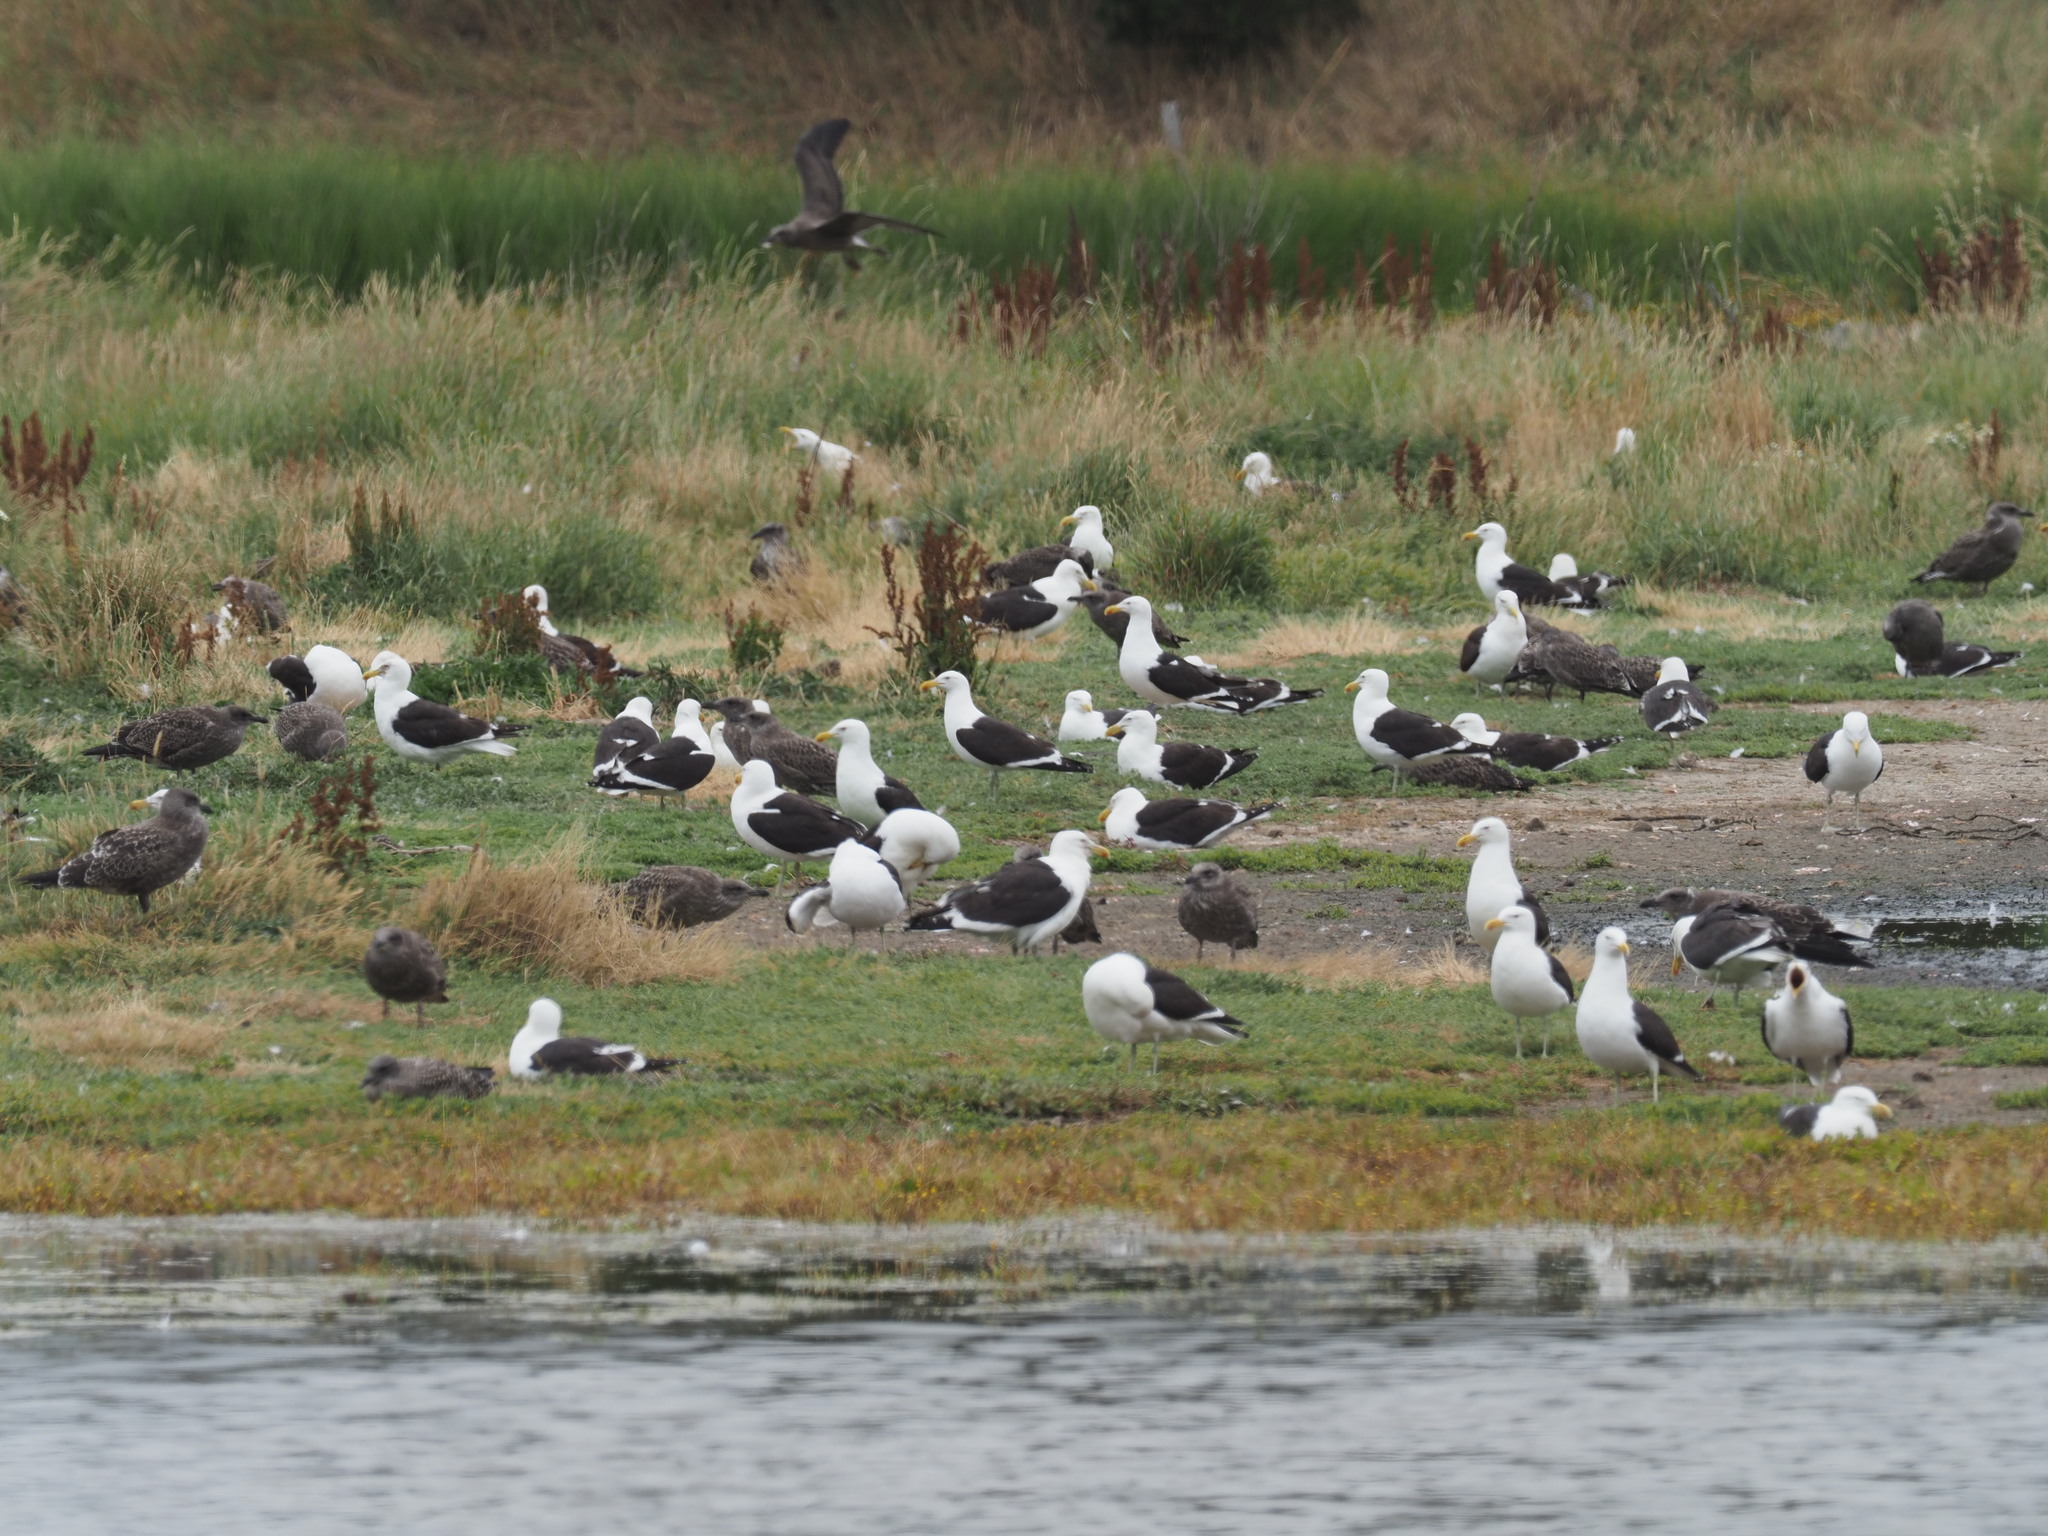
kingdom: Animalia
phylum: Chordata
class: Aves
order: Charadriiformes
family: Laridae
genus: Larus
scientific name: Larus dominicanus
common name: Kelp gull
